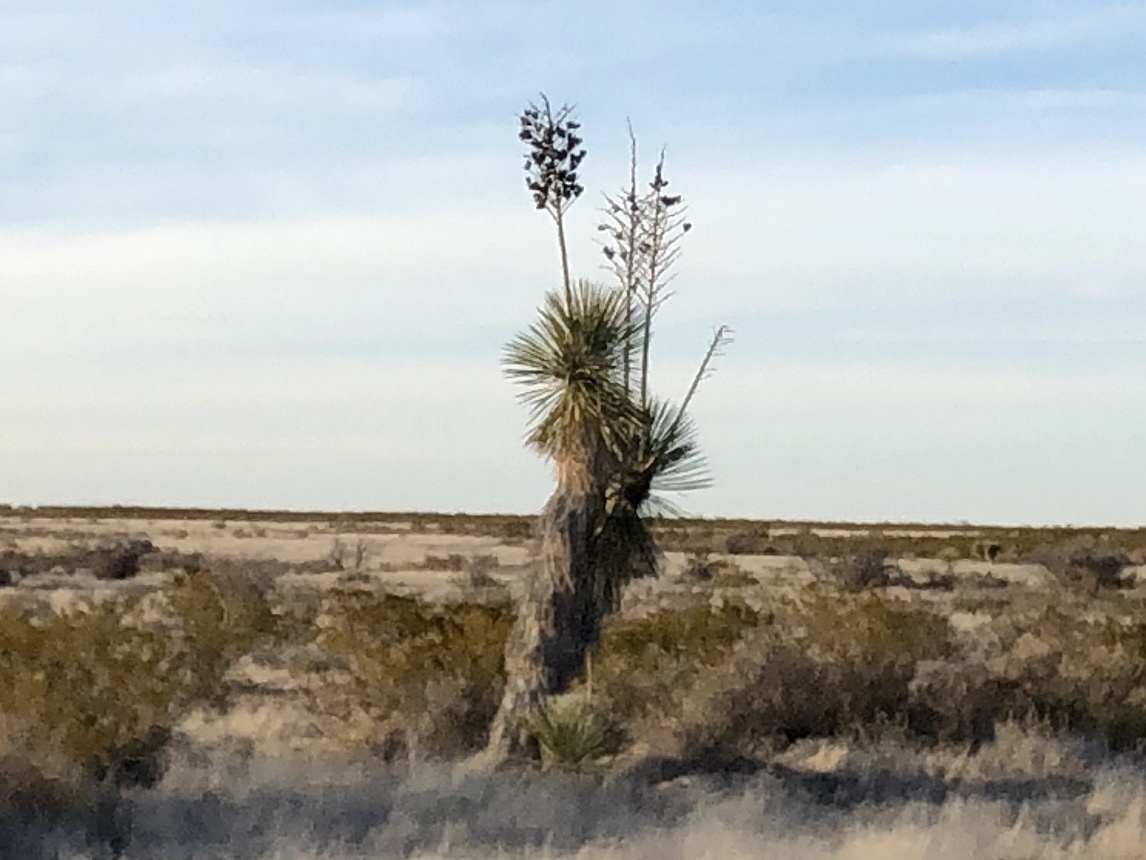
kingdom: Plantae
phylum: Tracheophyta
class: Liliopsida
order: Asparagales
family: Asparagaceae
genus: Yucca
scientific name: Yucca elata
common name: Palmella
